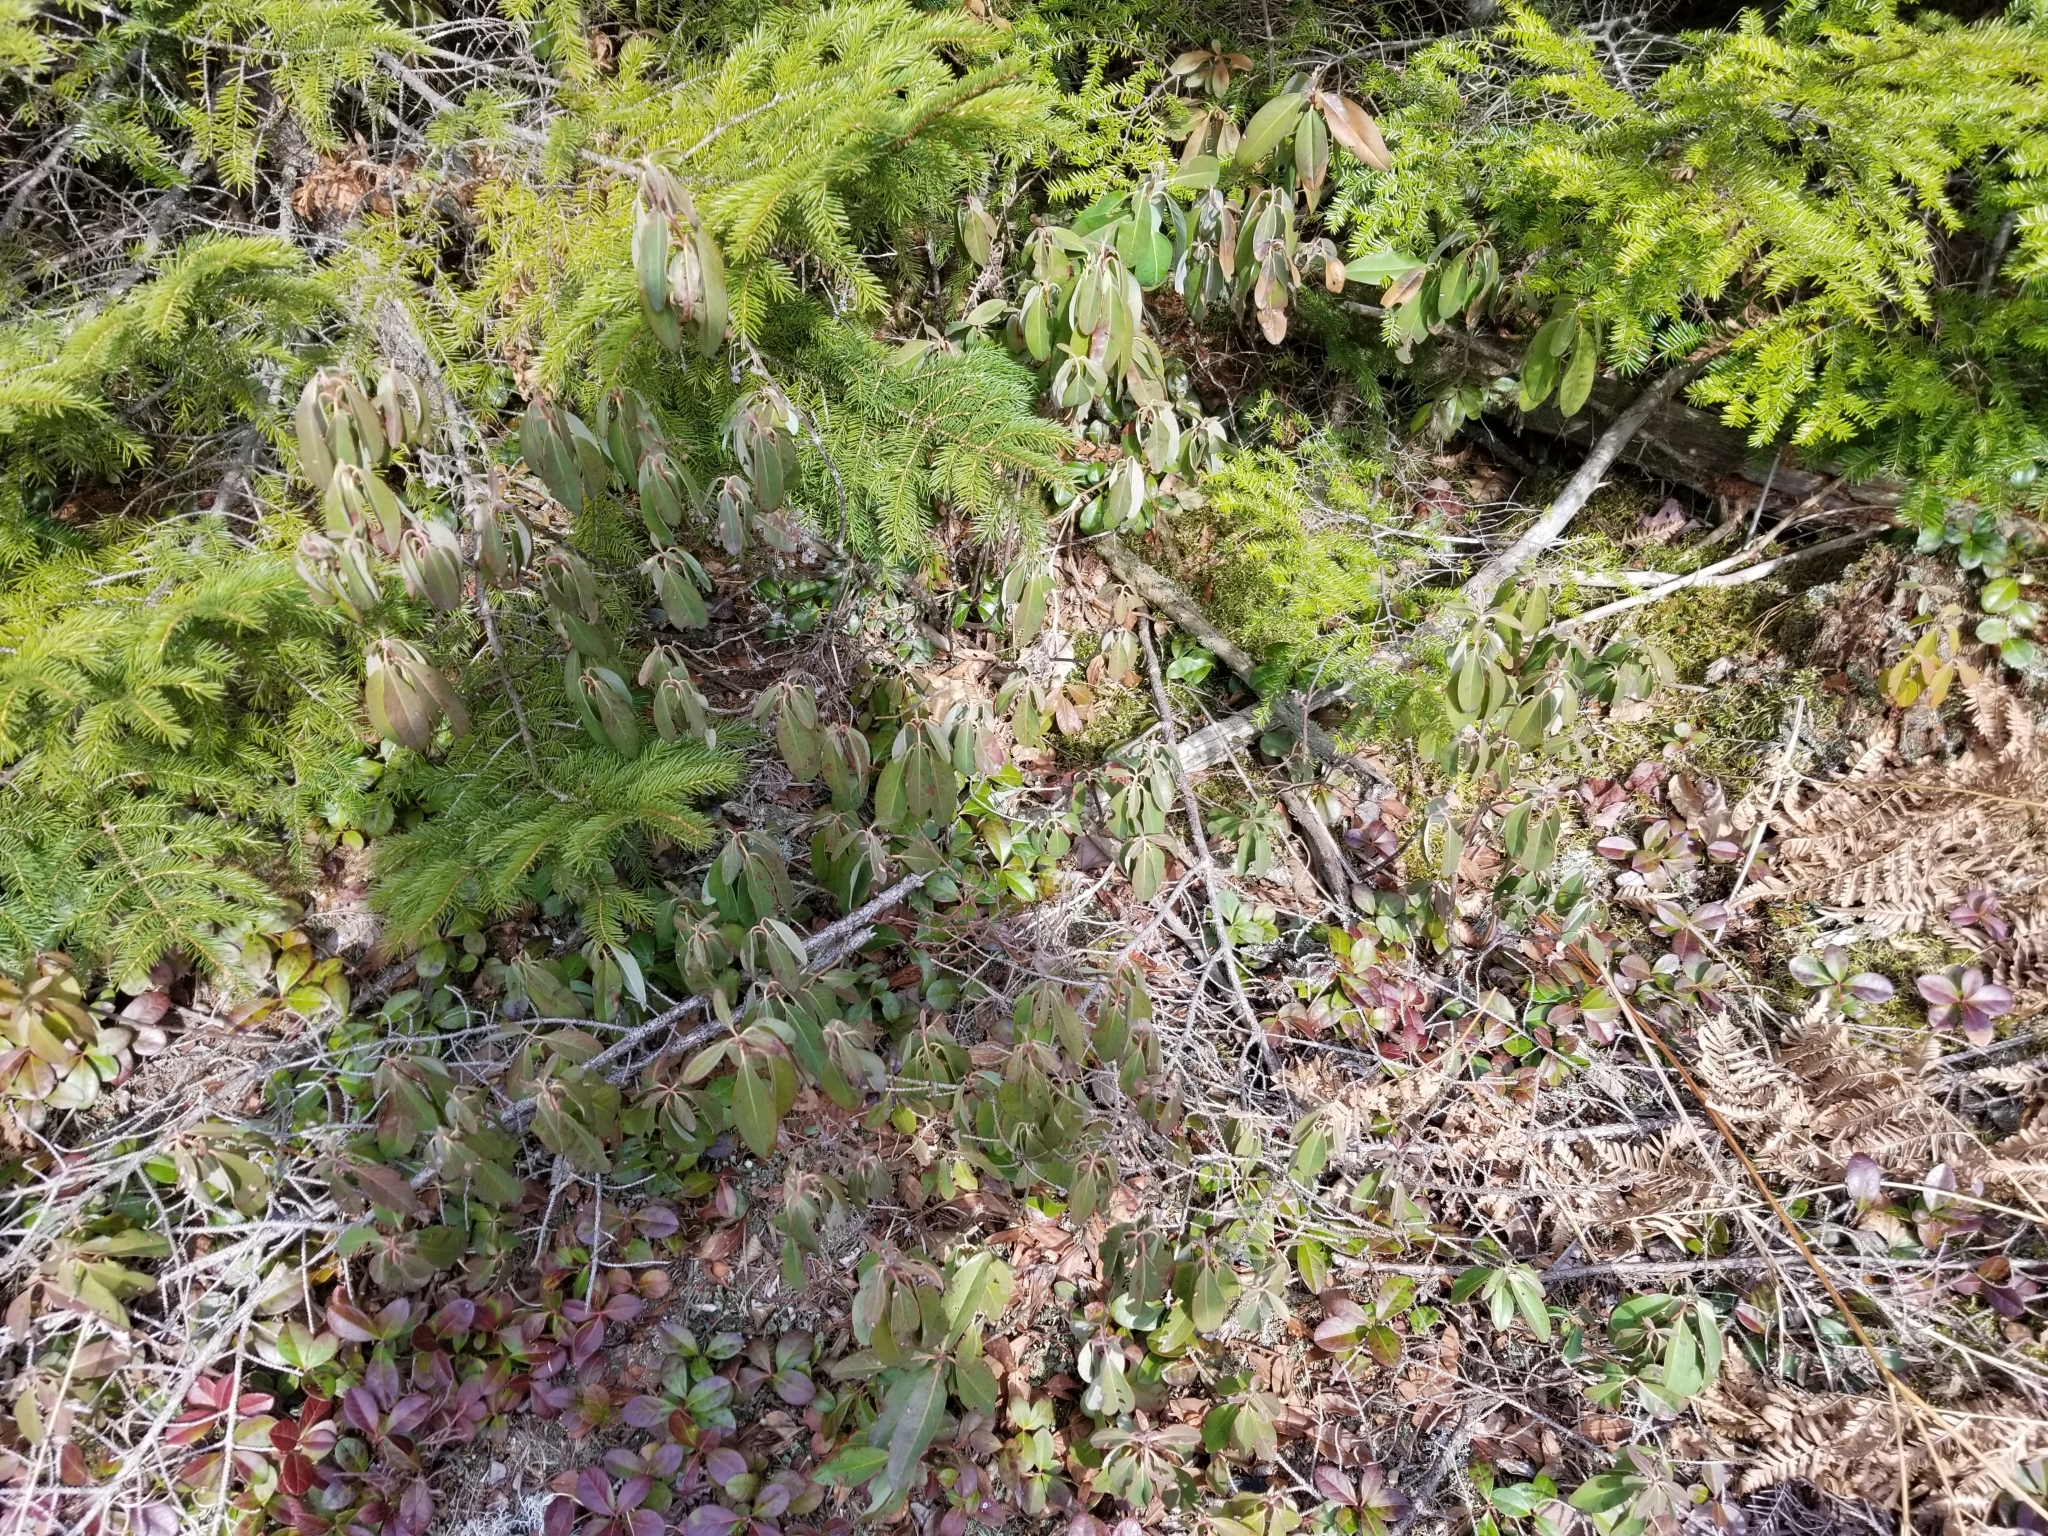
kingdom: Plantae
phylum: Tracheophyta
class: Magnoliopsida
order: Ericales
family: Ericaceae
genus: Kalmia
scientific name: Kalmia angustifolia
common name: Sheep-laurel
